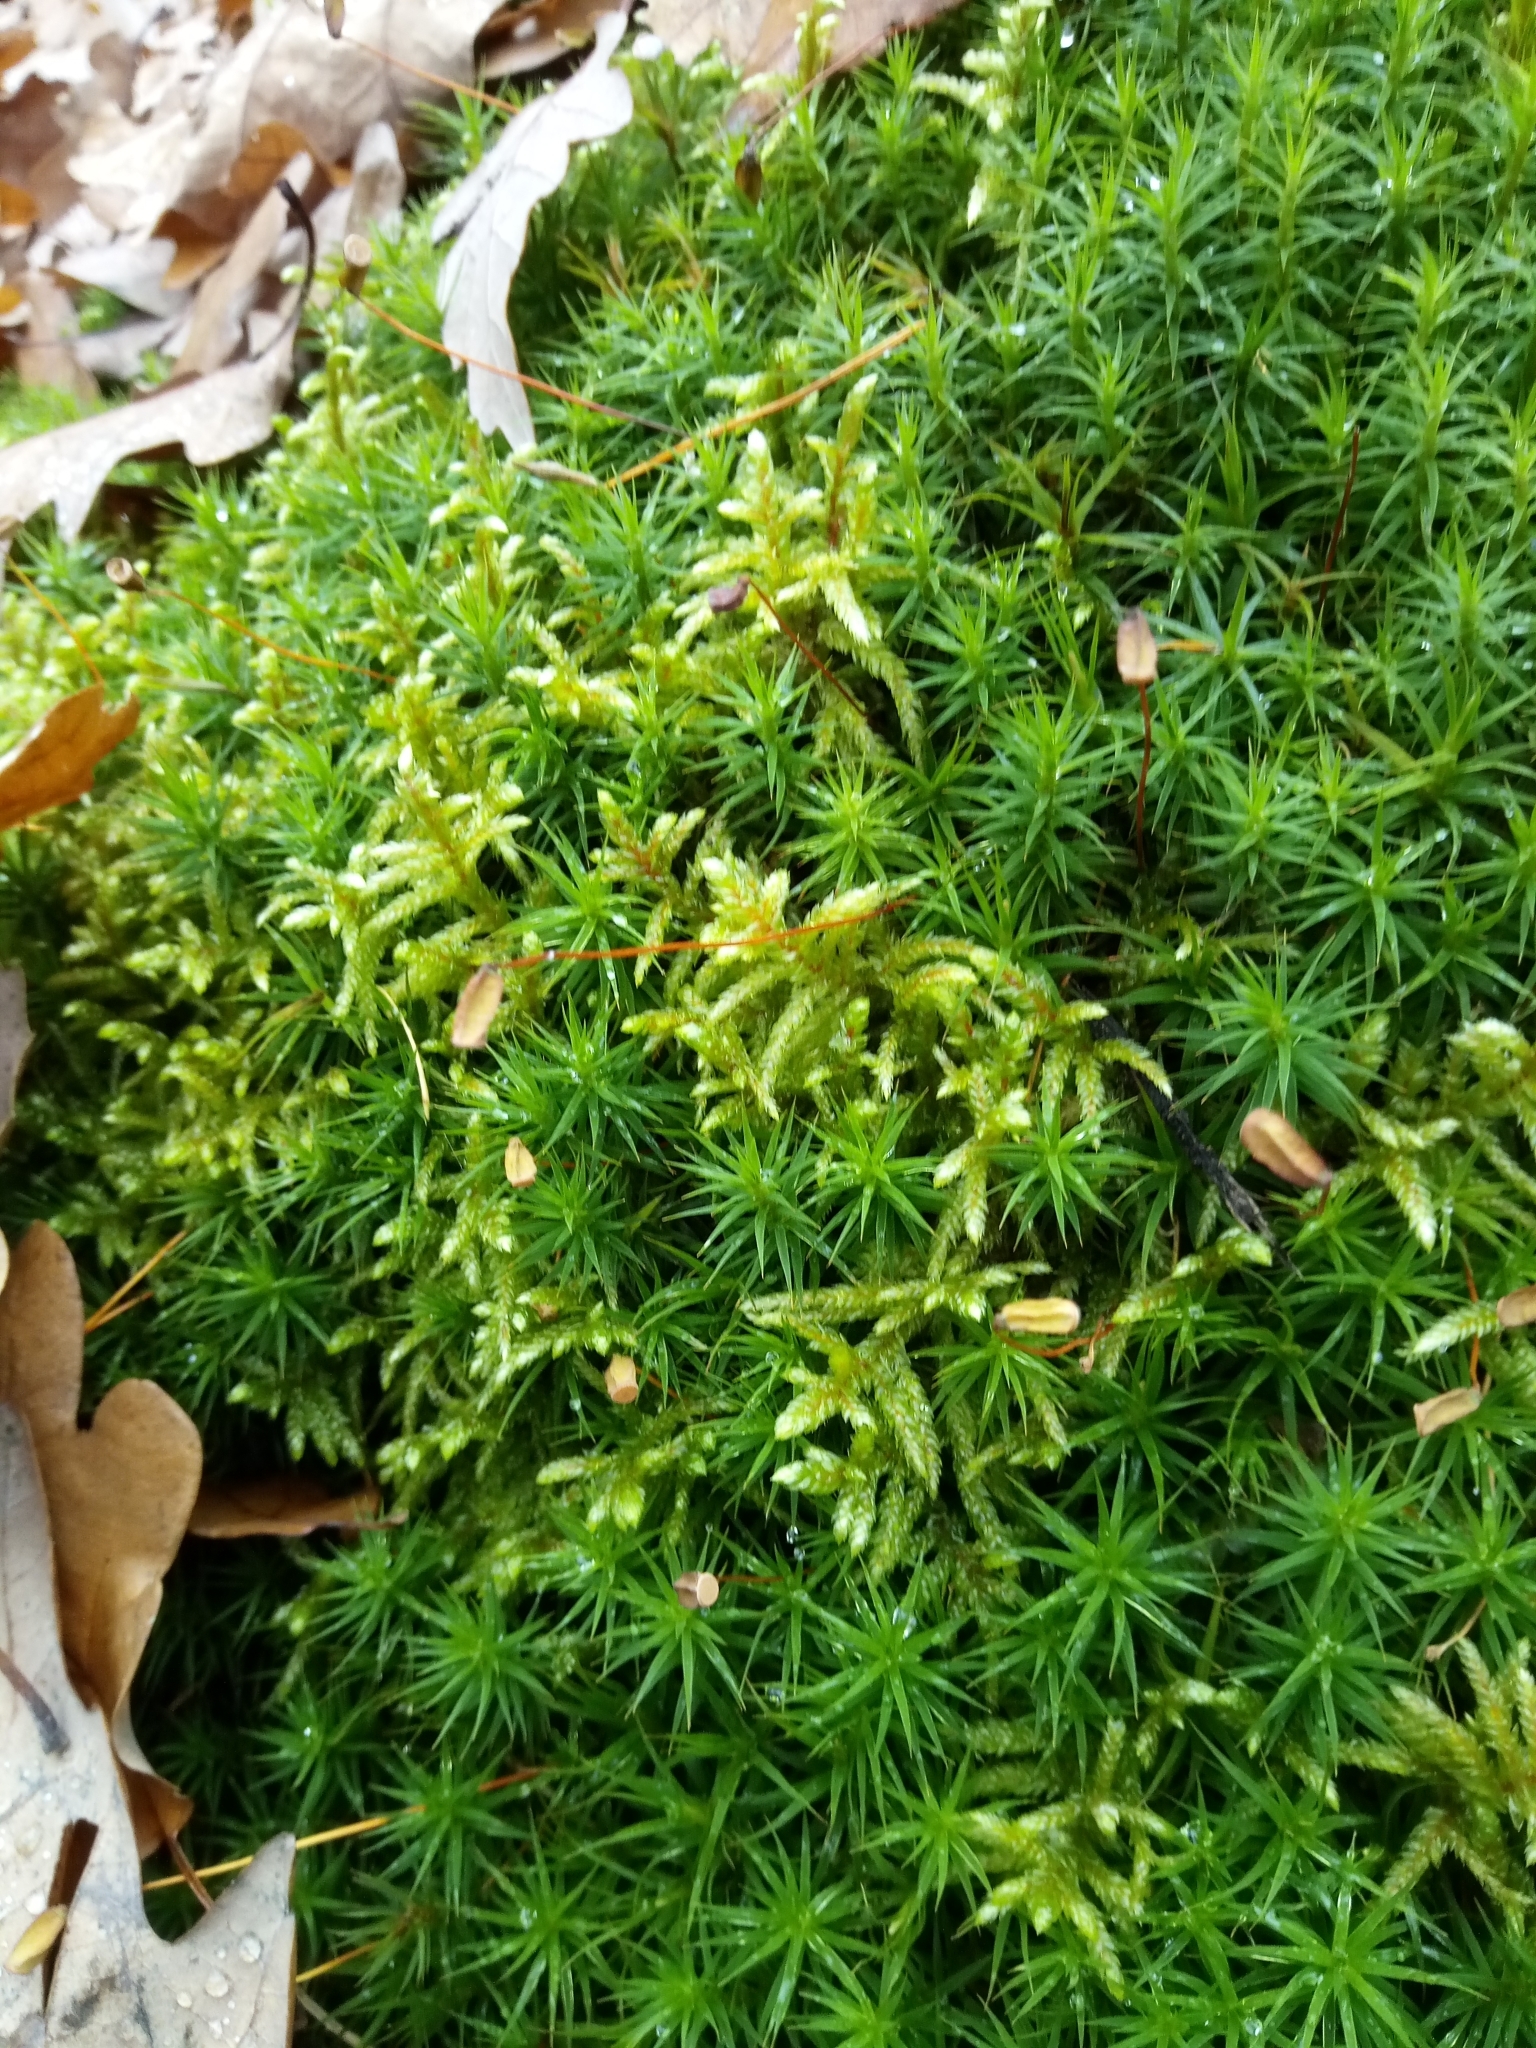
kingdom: Plantae
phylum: Bryophyta
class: Bryopsida
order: Hypnales
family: Hylocomiaceae
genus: Pleurozium
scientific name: Pleurozium schreberi
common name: Red-stemmed feather moss
